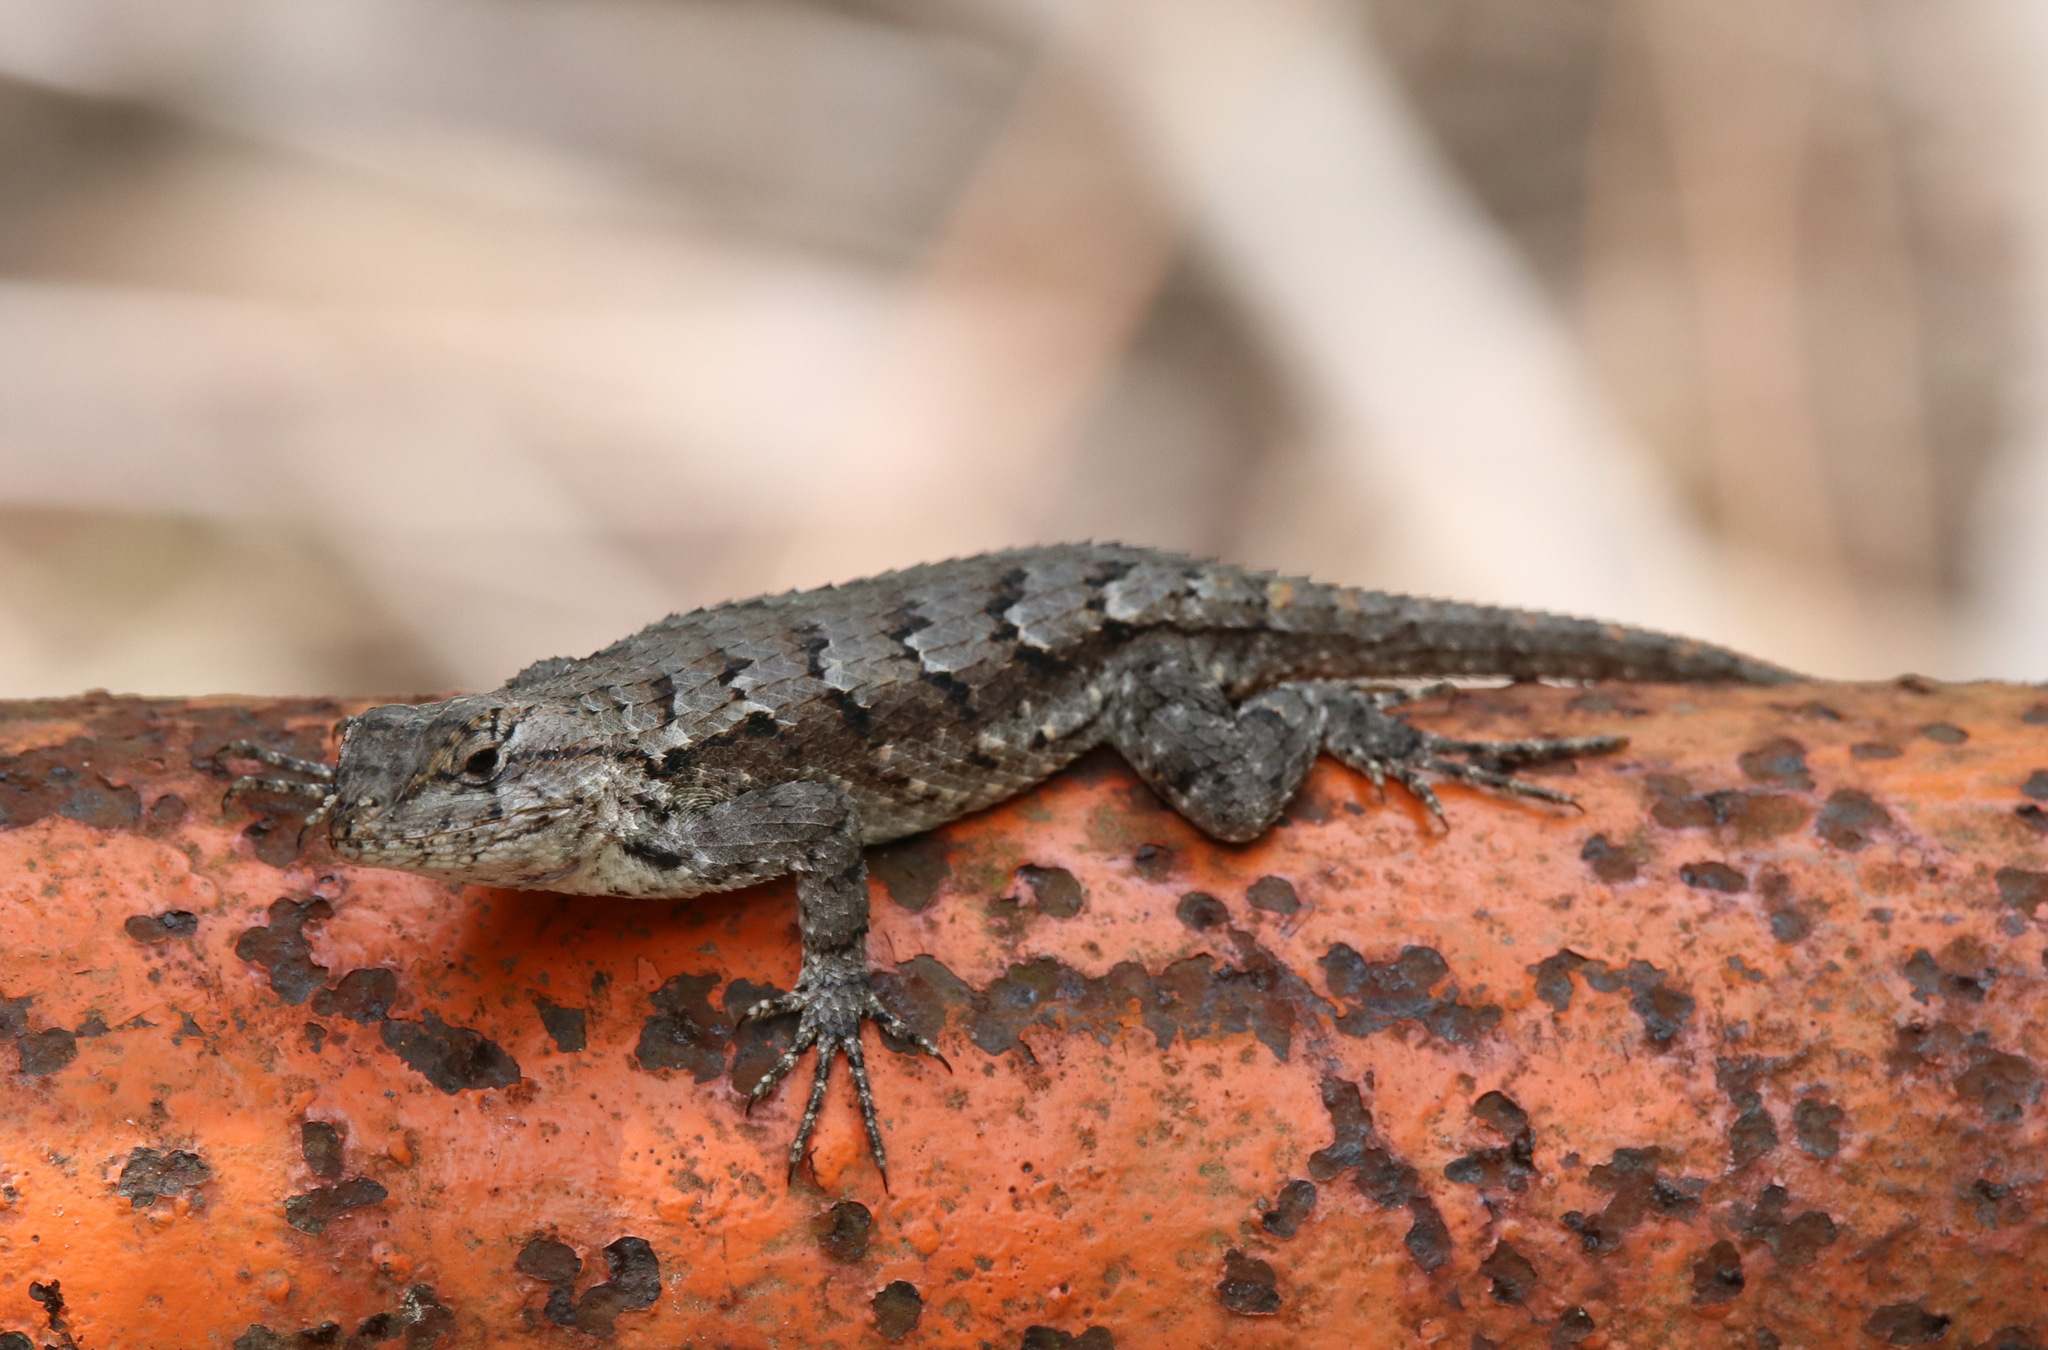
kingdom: Animalia
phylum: Chordata
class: Squamata
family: Phrynosomatidae
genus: Sceloporus
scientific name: Sceloporus consobrinus
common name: Southern prairie lizard
